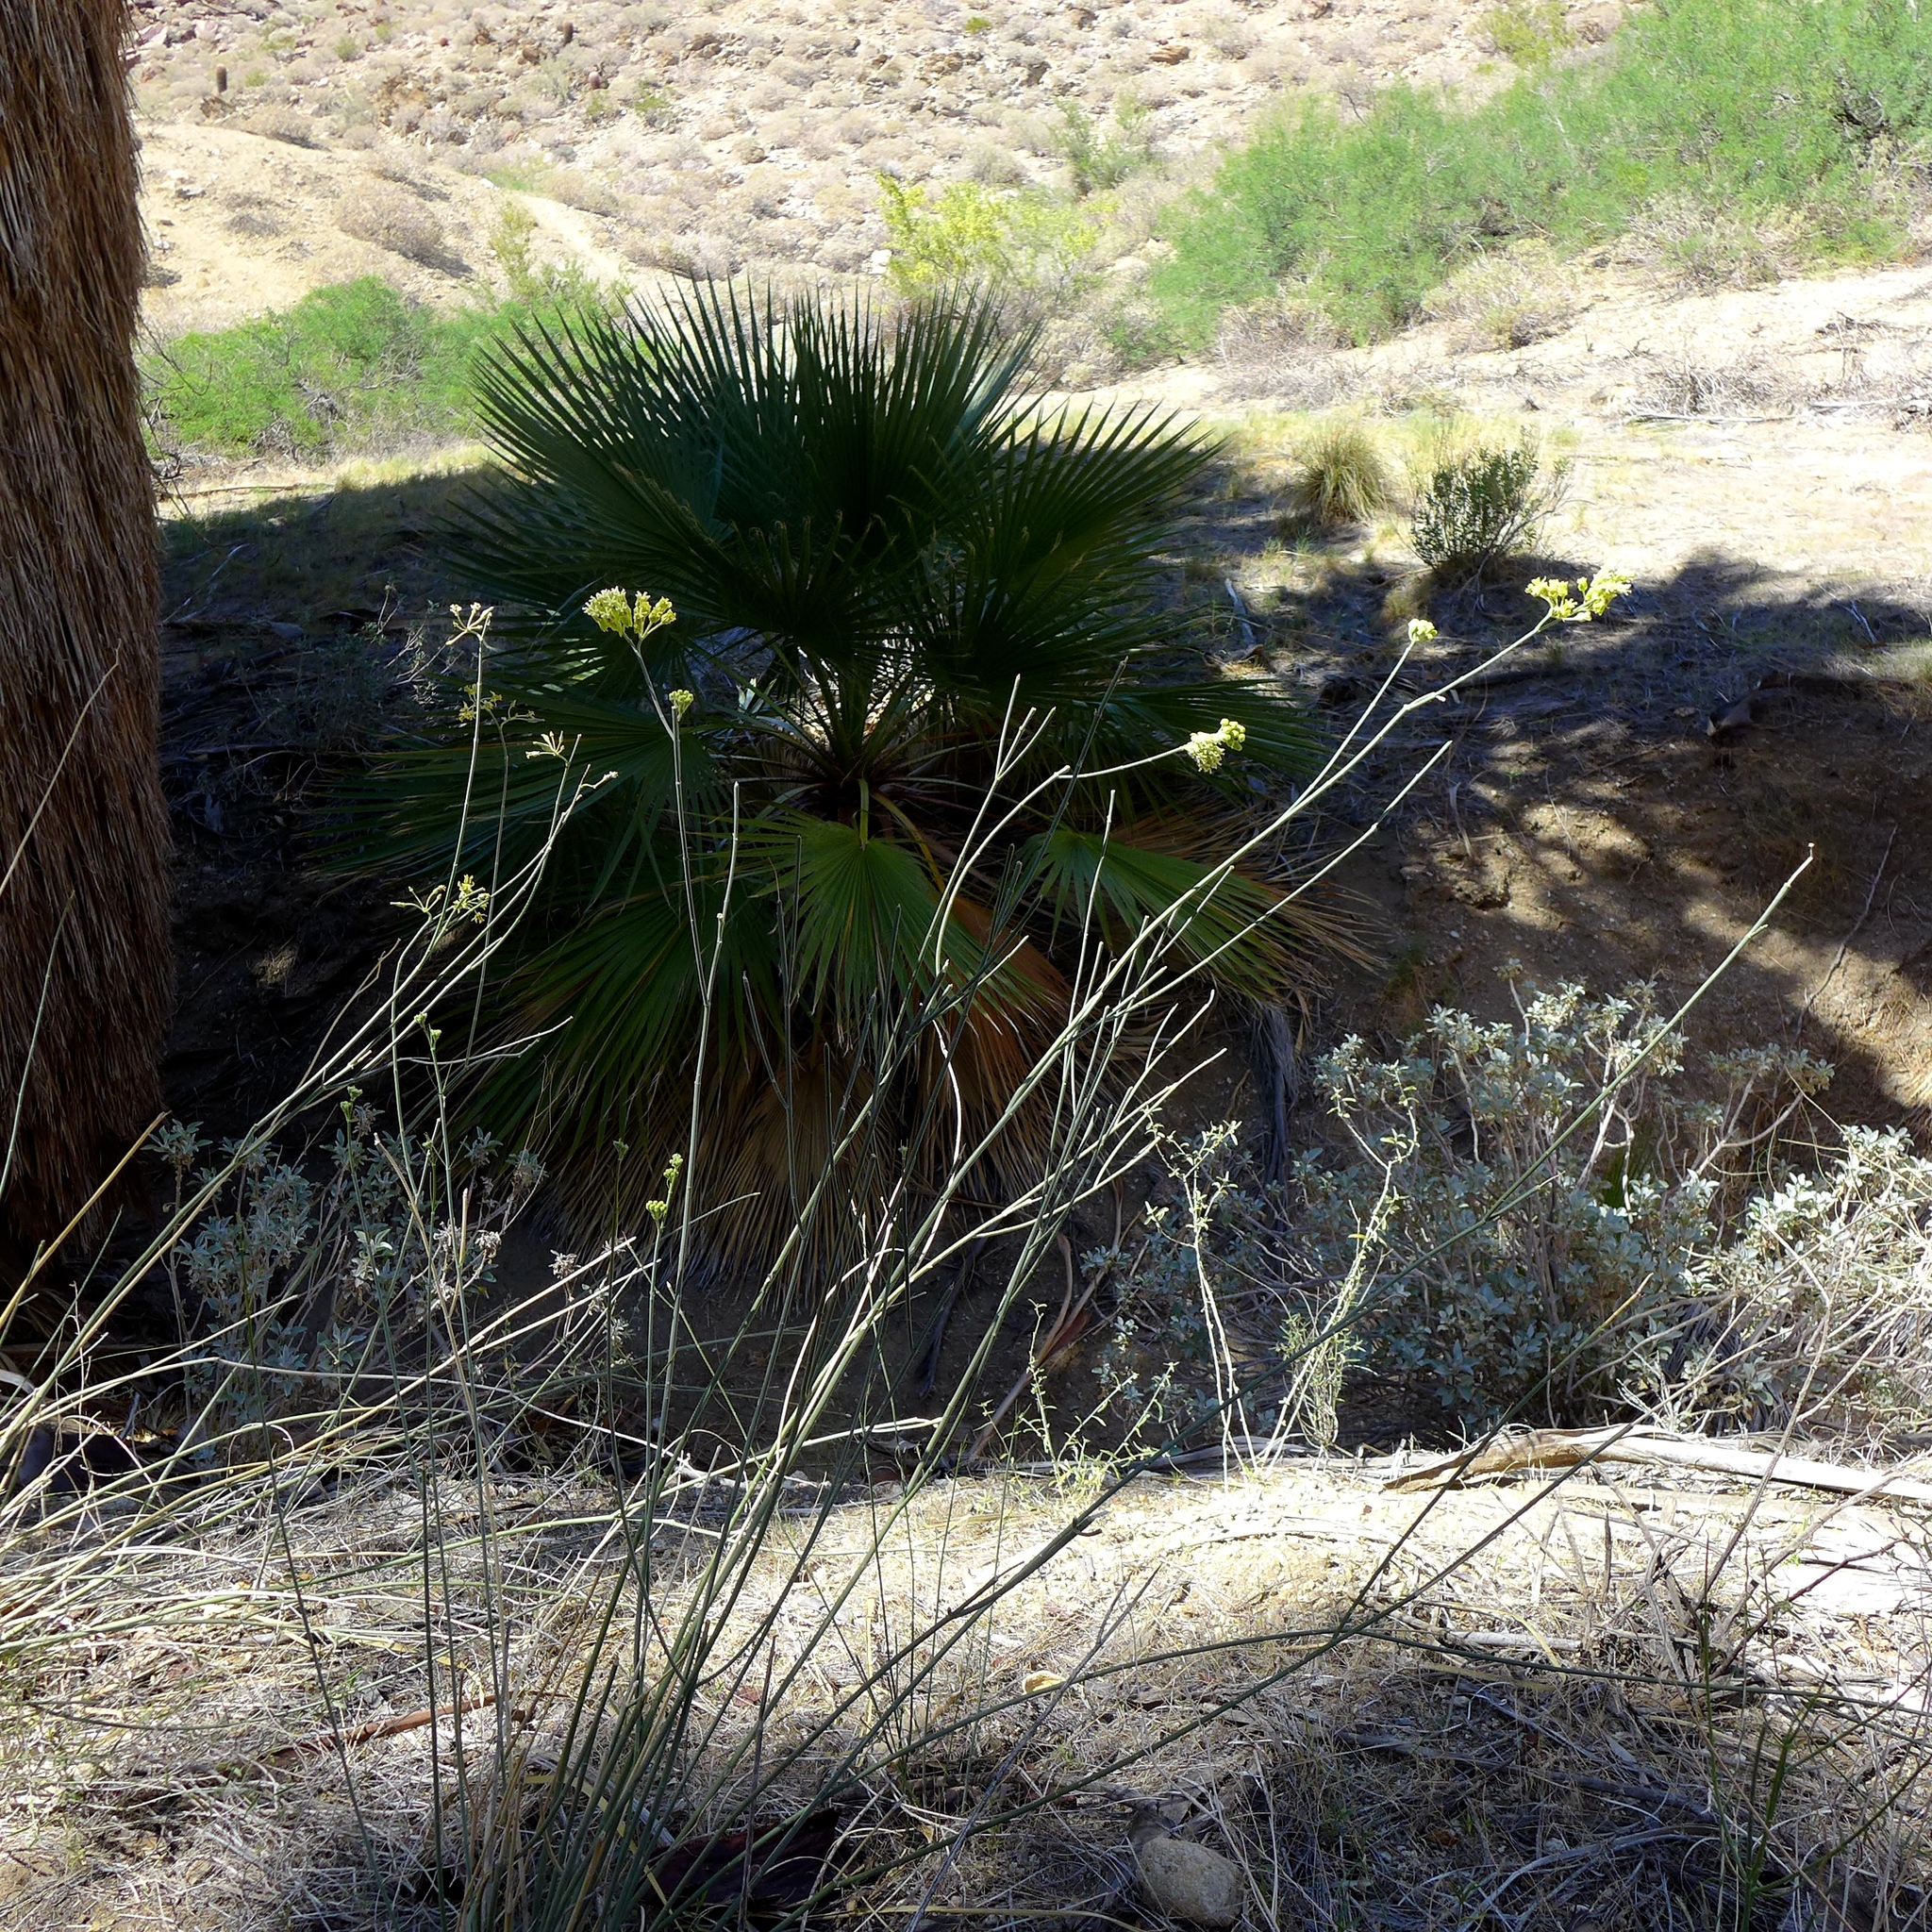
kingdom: Plantae
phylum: Tracheophyta
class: Magnoliopsida
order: Gentianales
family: Apocynaceae
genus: Asclepias
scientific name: Asclepias subulata
